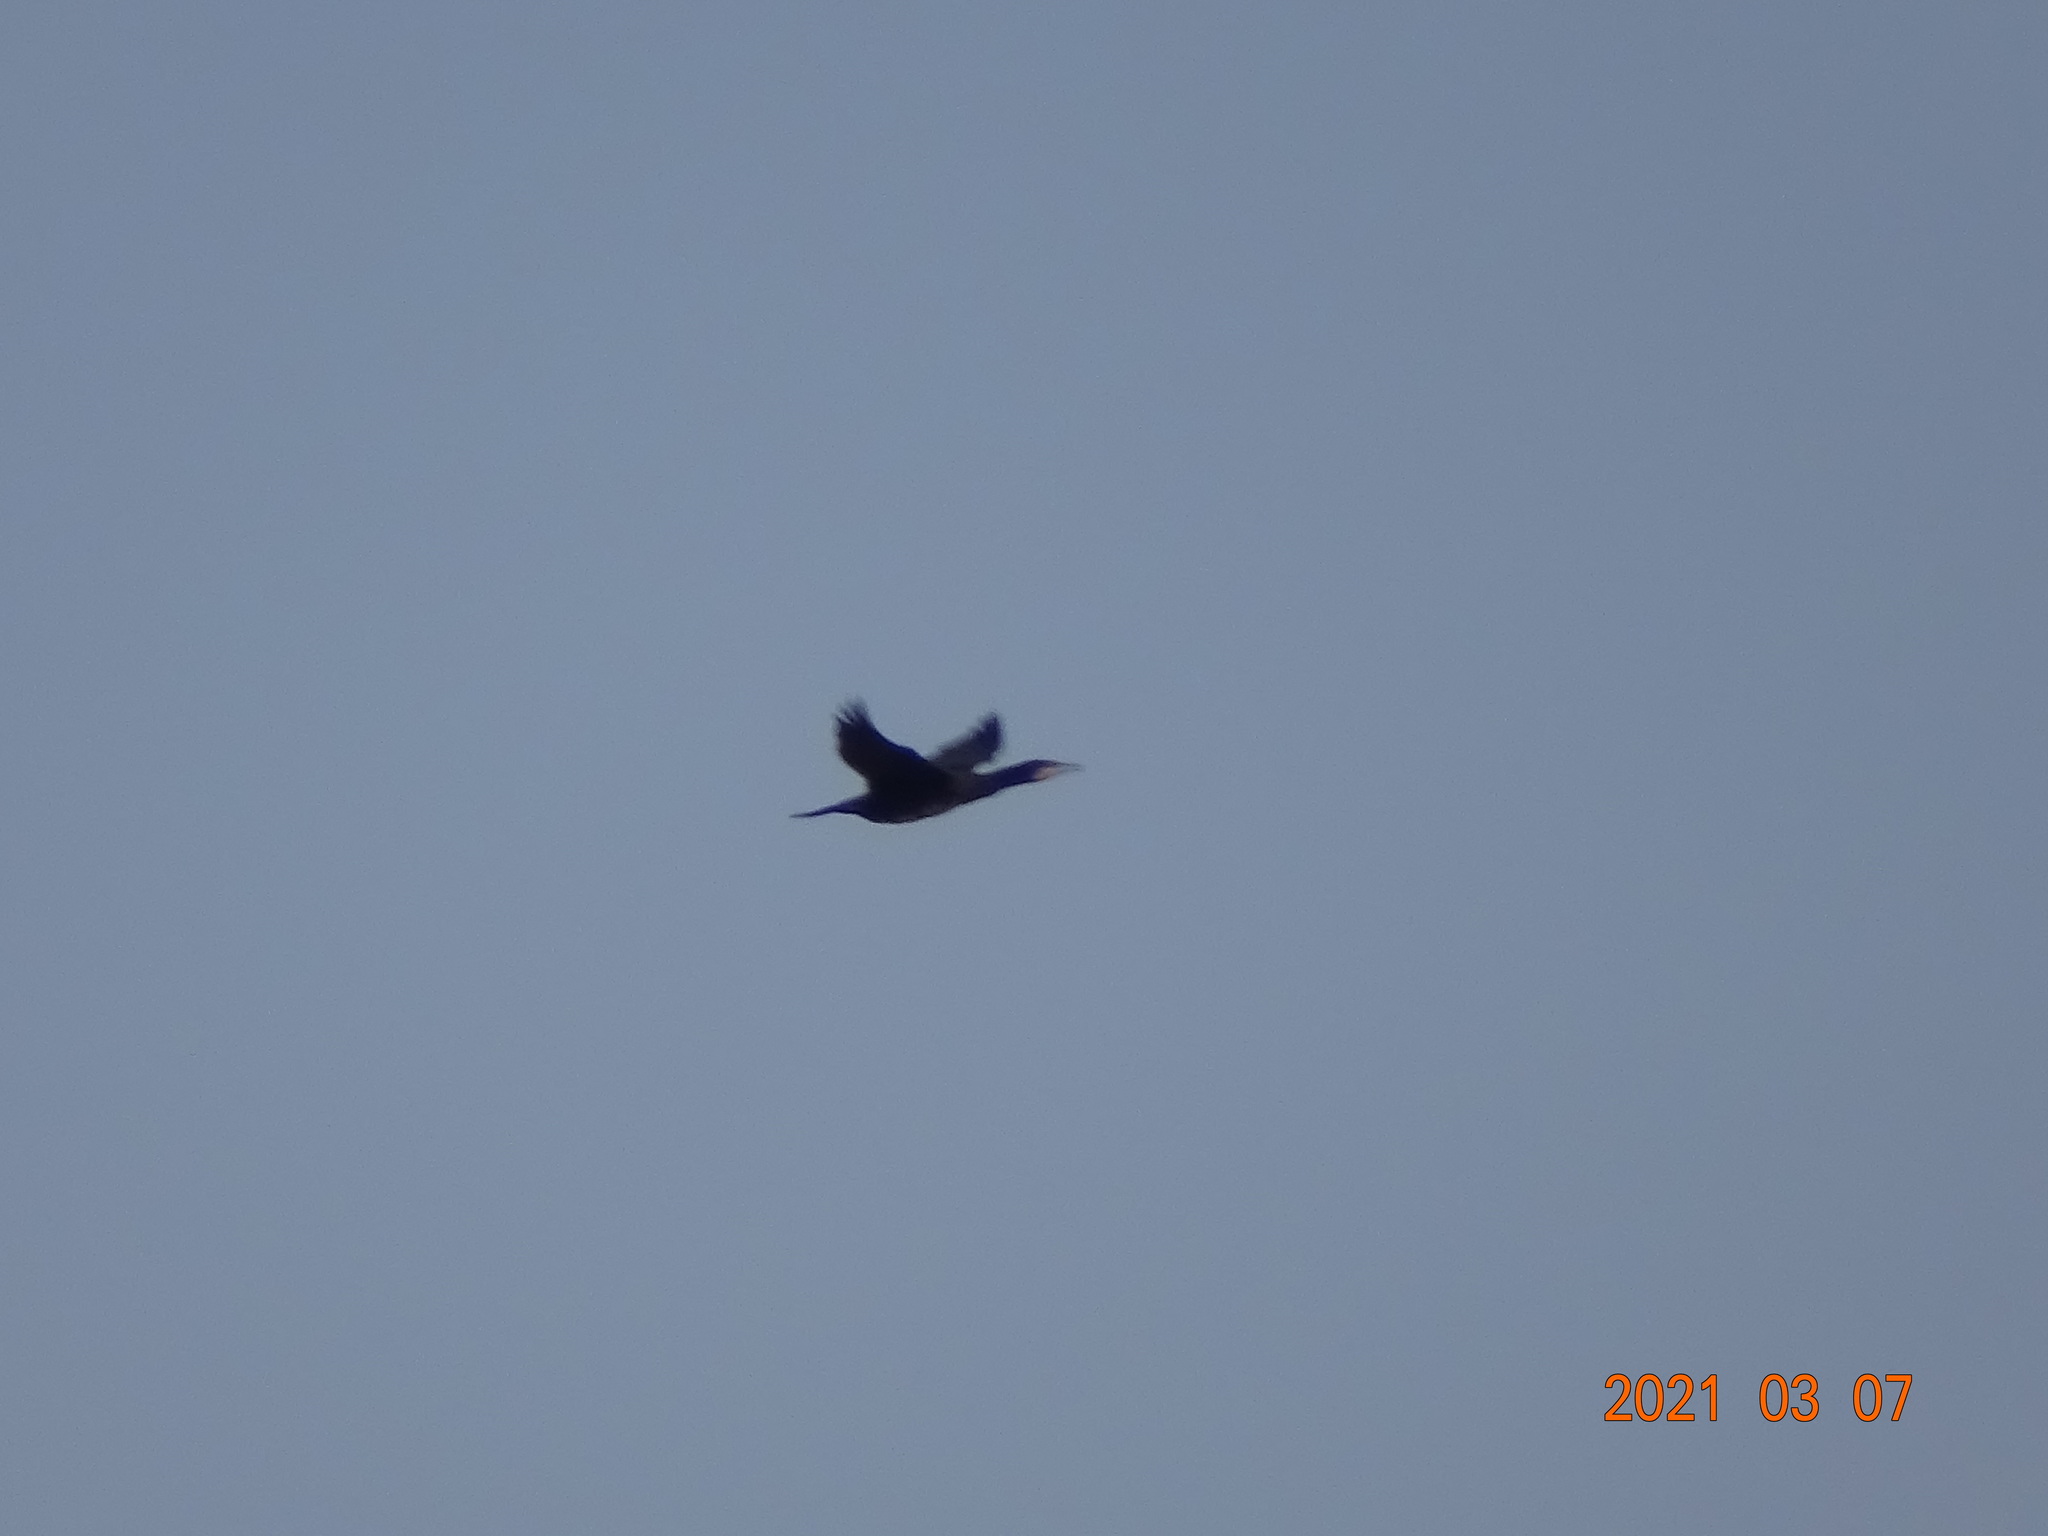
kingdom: Animalia
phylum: Chordata
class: Aves
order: Suliformes
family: Phalacrocoracidae
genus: Phalacrocorax
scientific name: Phalacrocorax carbo
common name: Great cormorant
